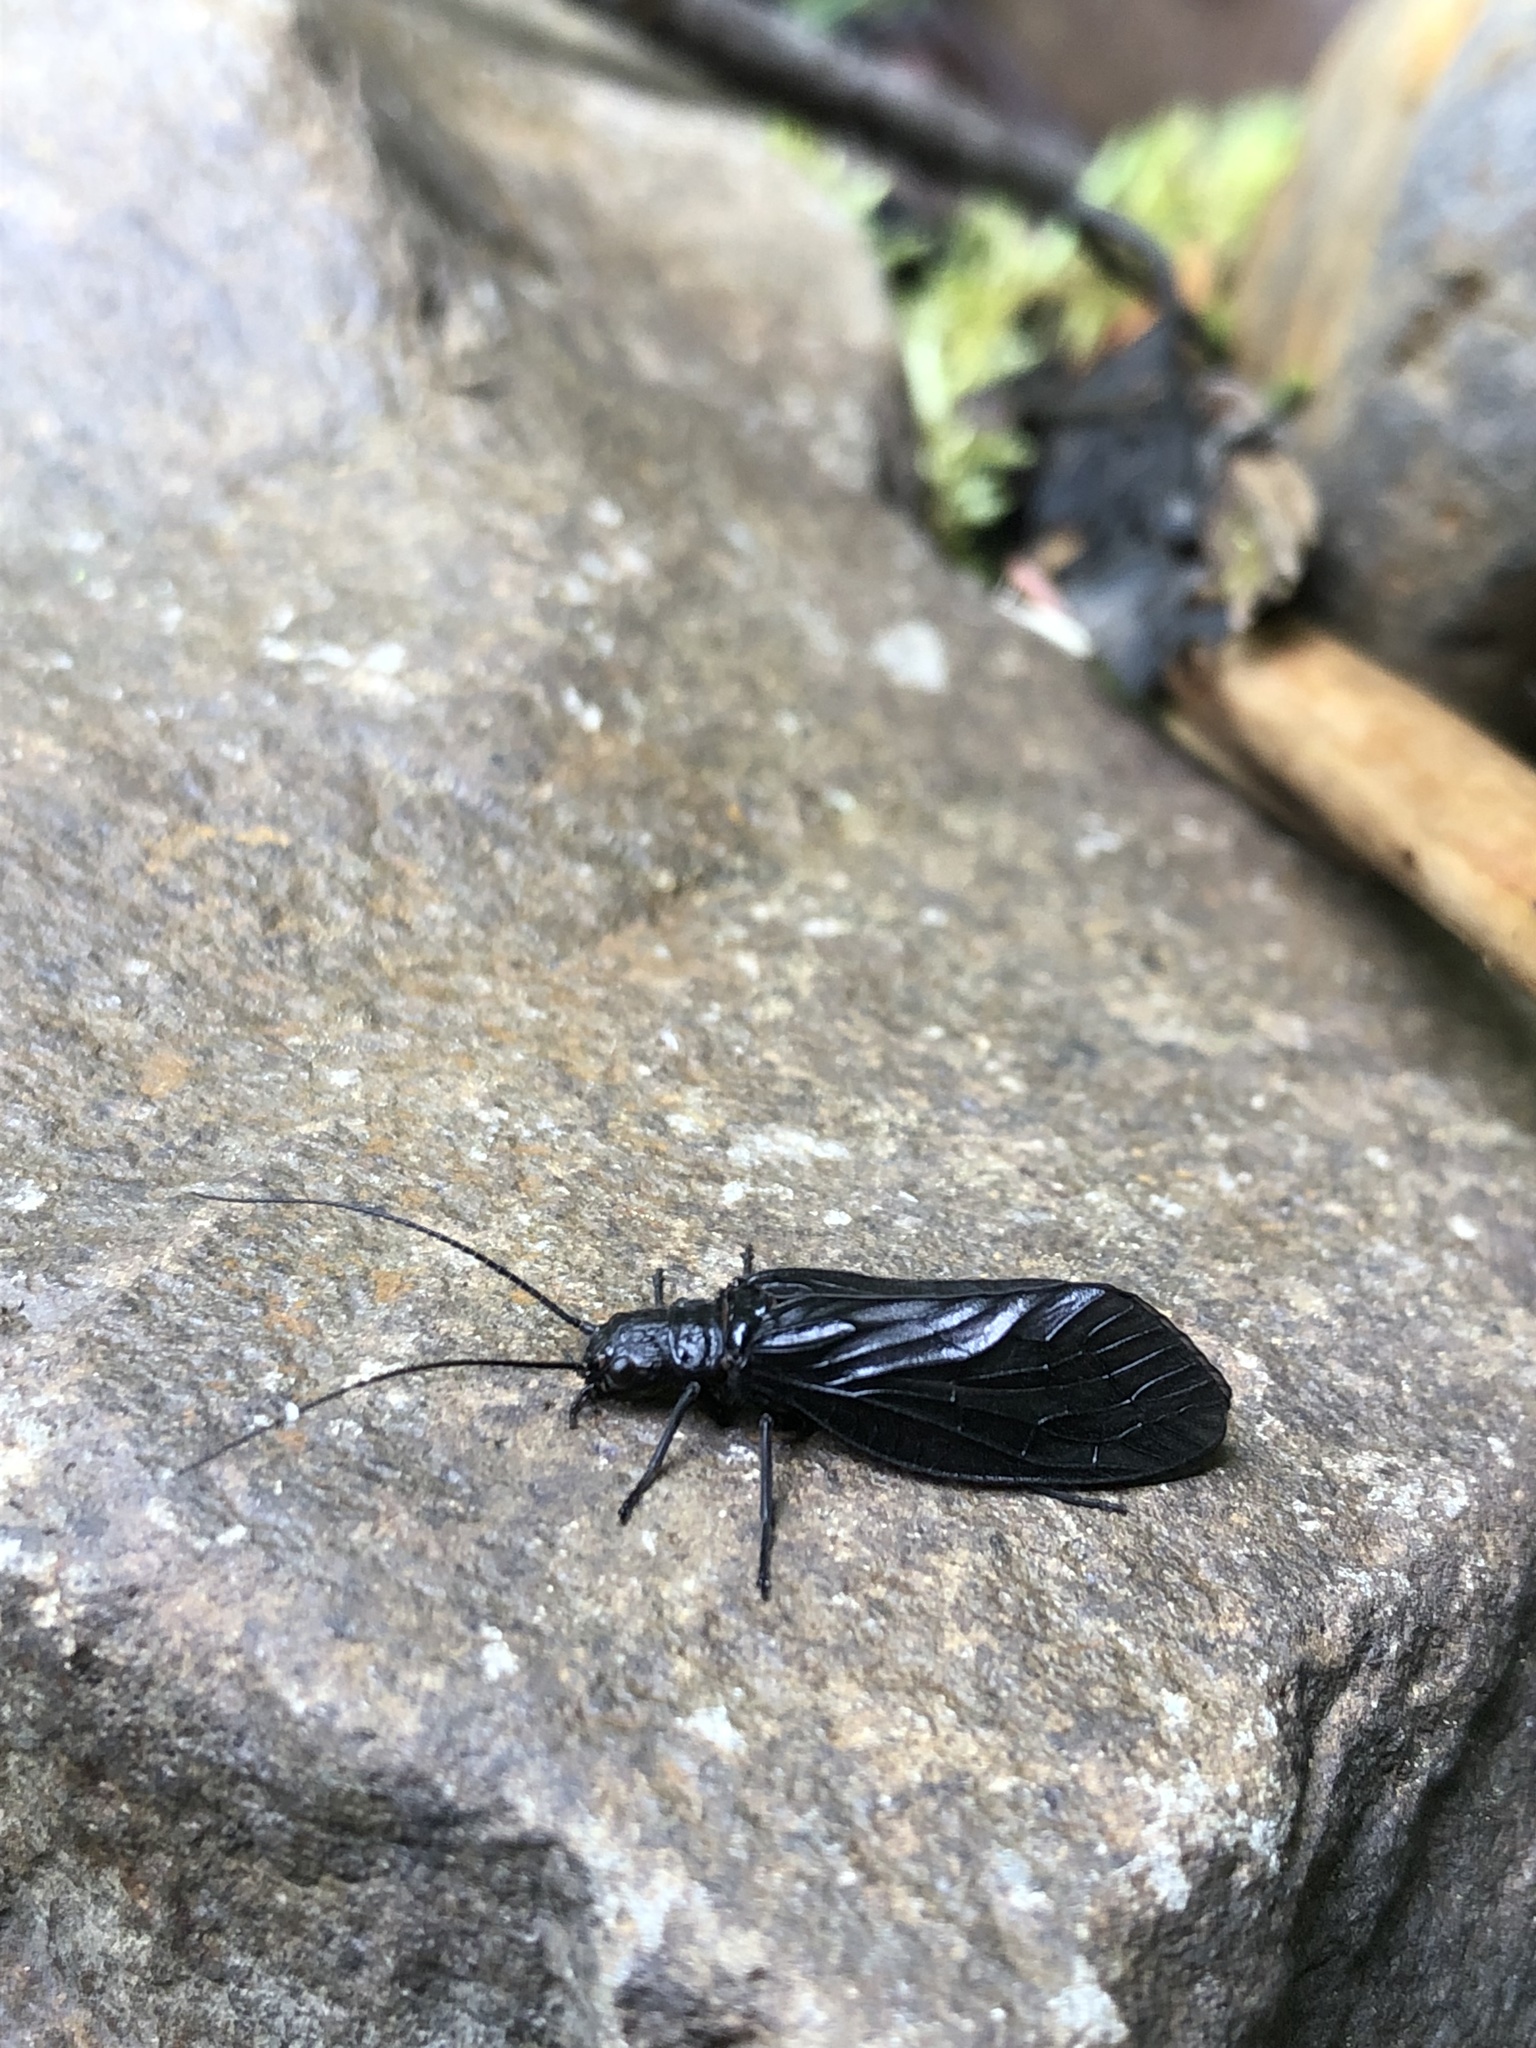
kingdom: Animalia
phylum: Arthropoda
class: Insecta
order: Megaloptera
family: Sialidae
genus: Sialis
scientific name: Sialis californica
